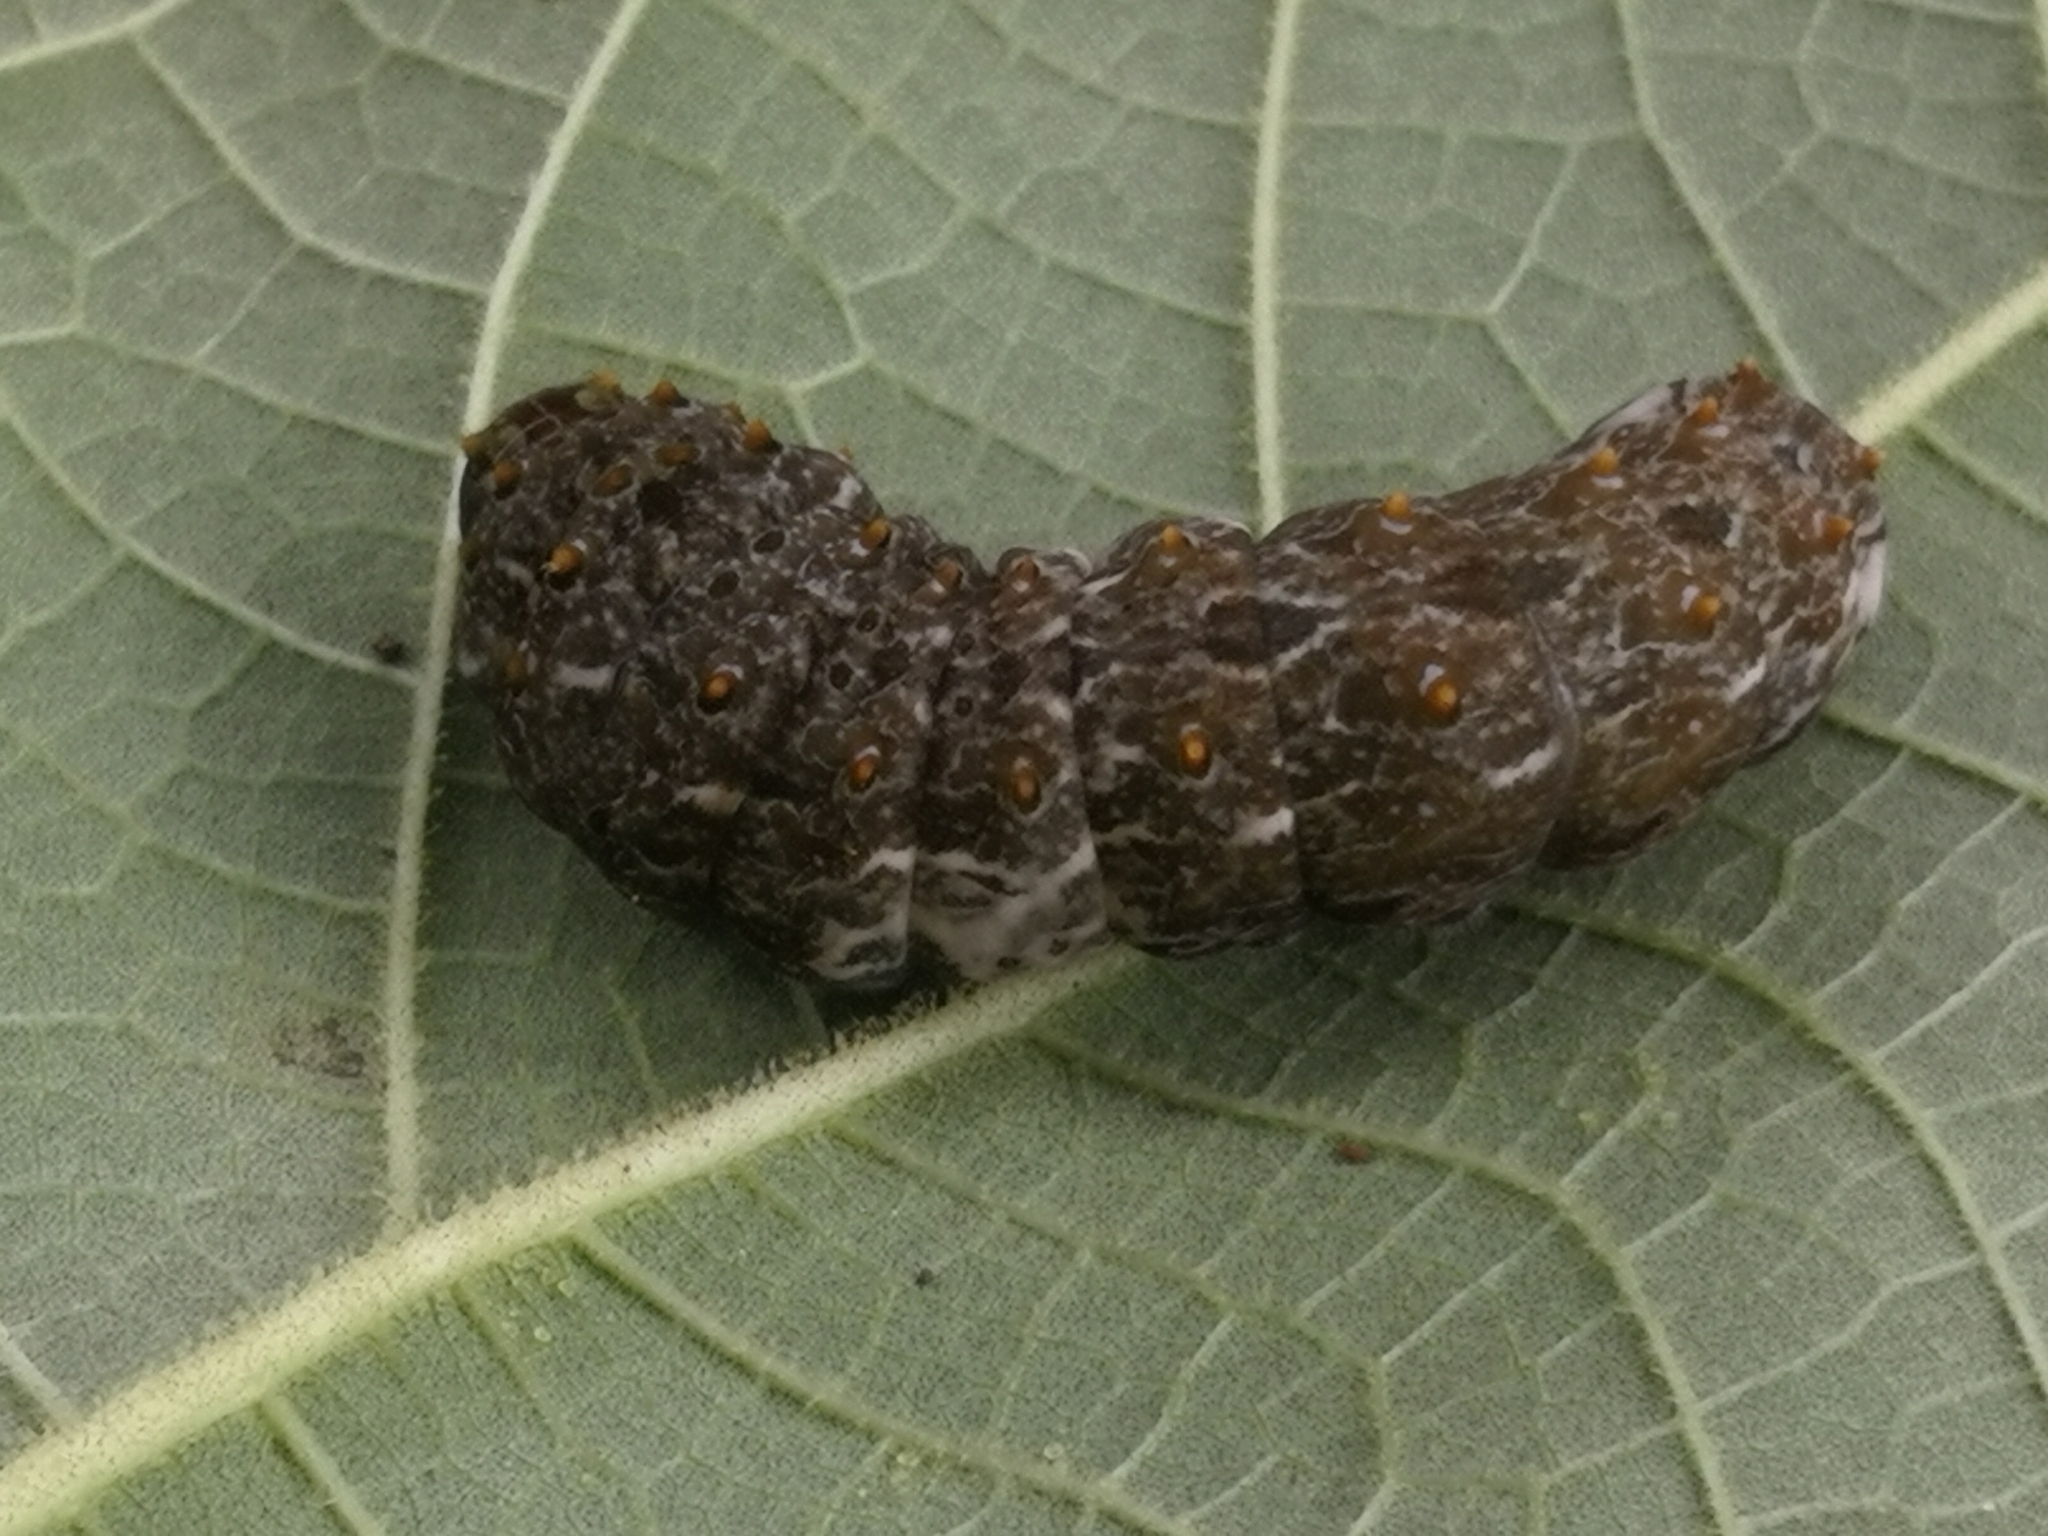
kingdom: Animalia
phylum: Arthropoda
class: Insecta
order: Lepidoptera
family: Papilionidae
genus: Papilio
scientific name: Papilio anchisiades
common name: Idaes swallowtail
